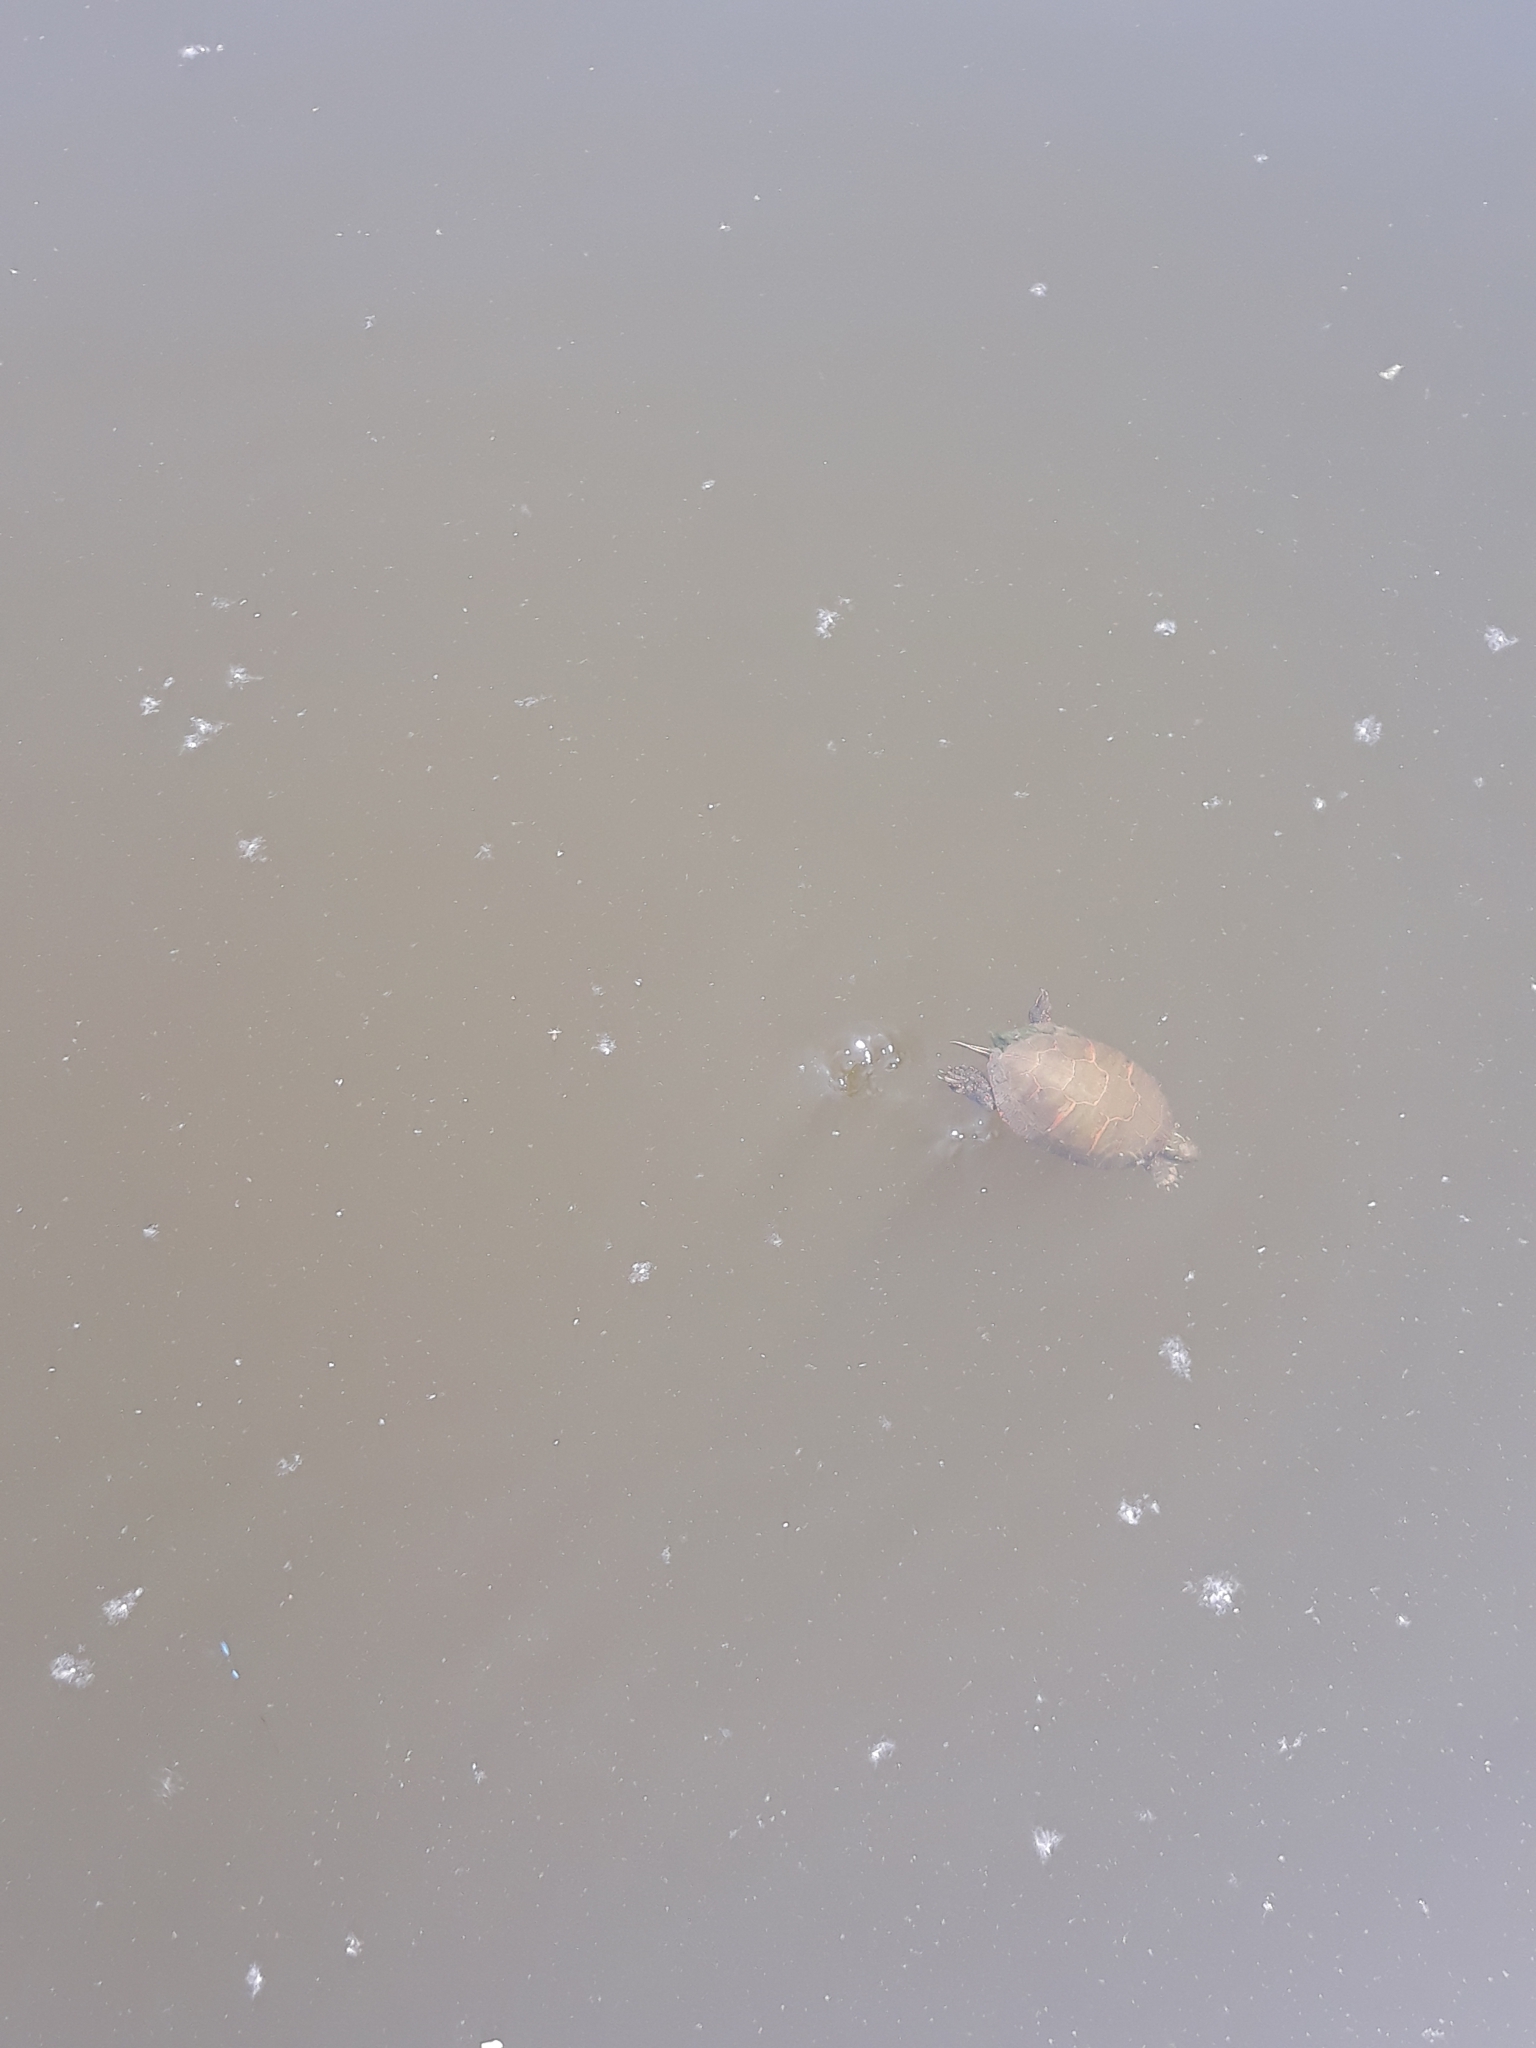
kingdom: Animalia
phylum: Chordata
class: Testudines
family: Emydidae
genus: Chrysemys
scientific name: Chrysemys picta
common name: Painted turtle
